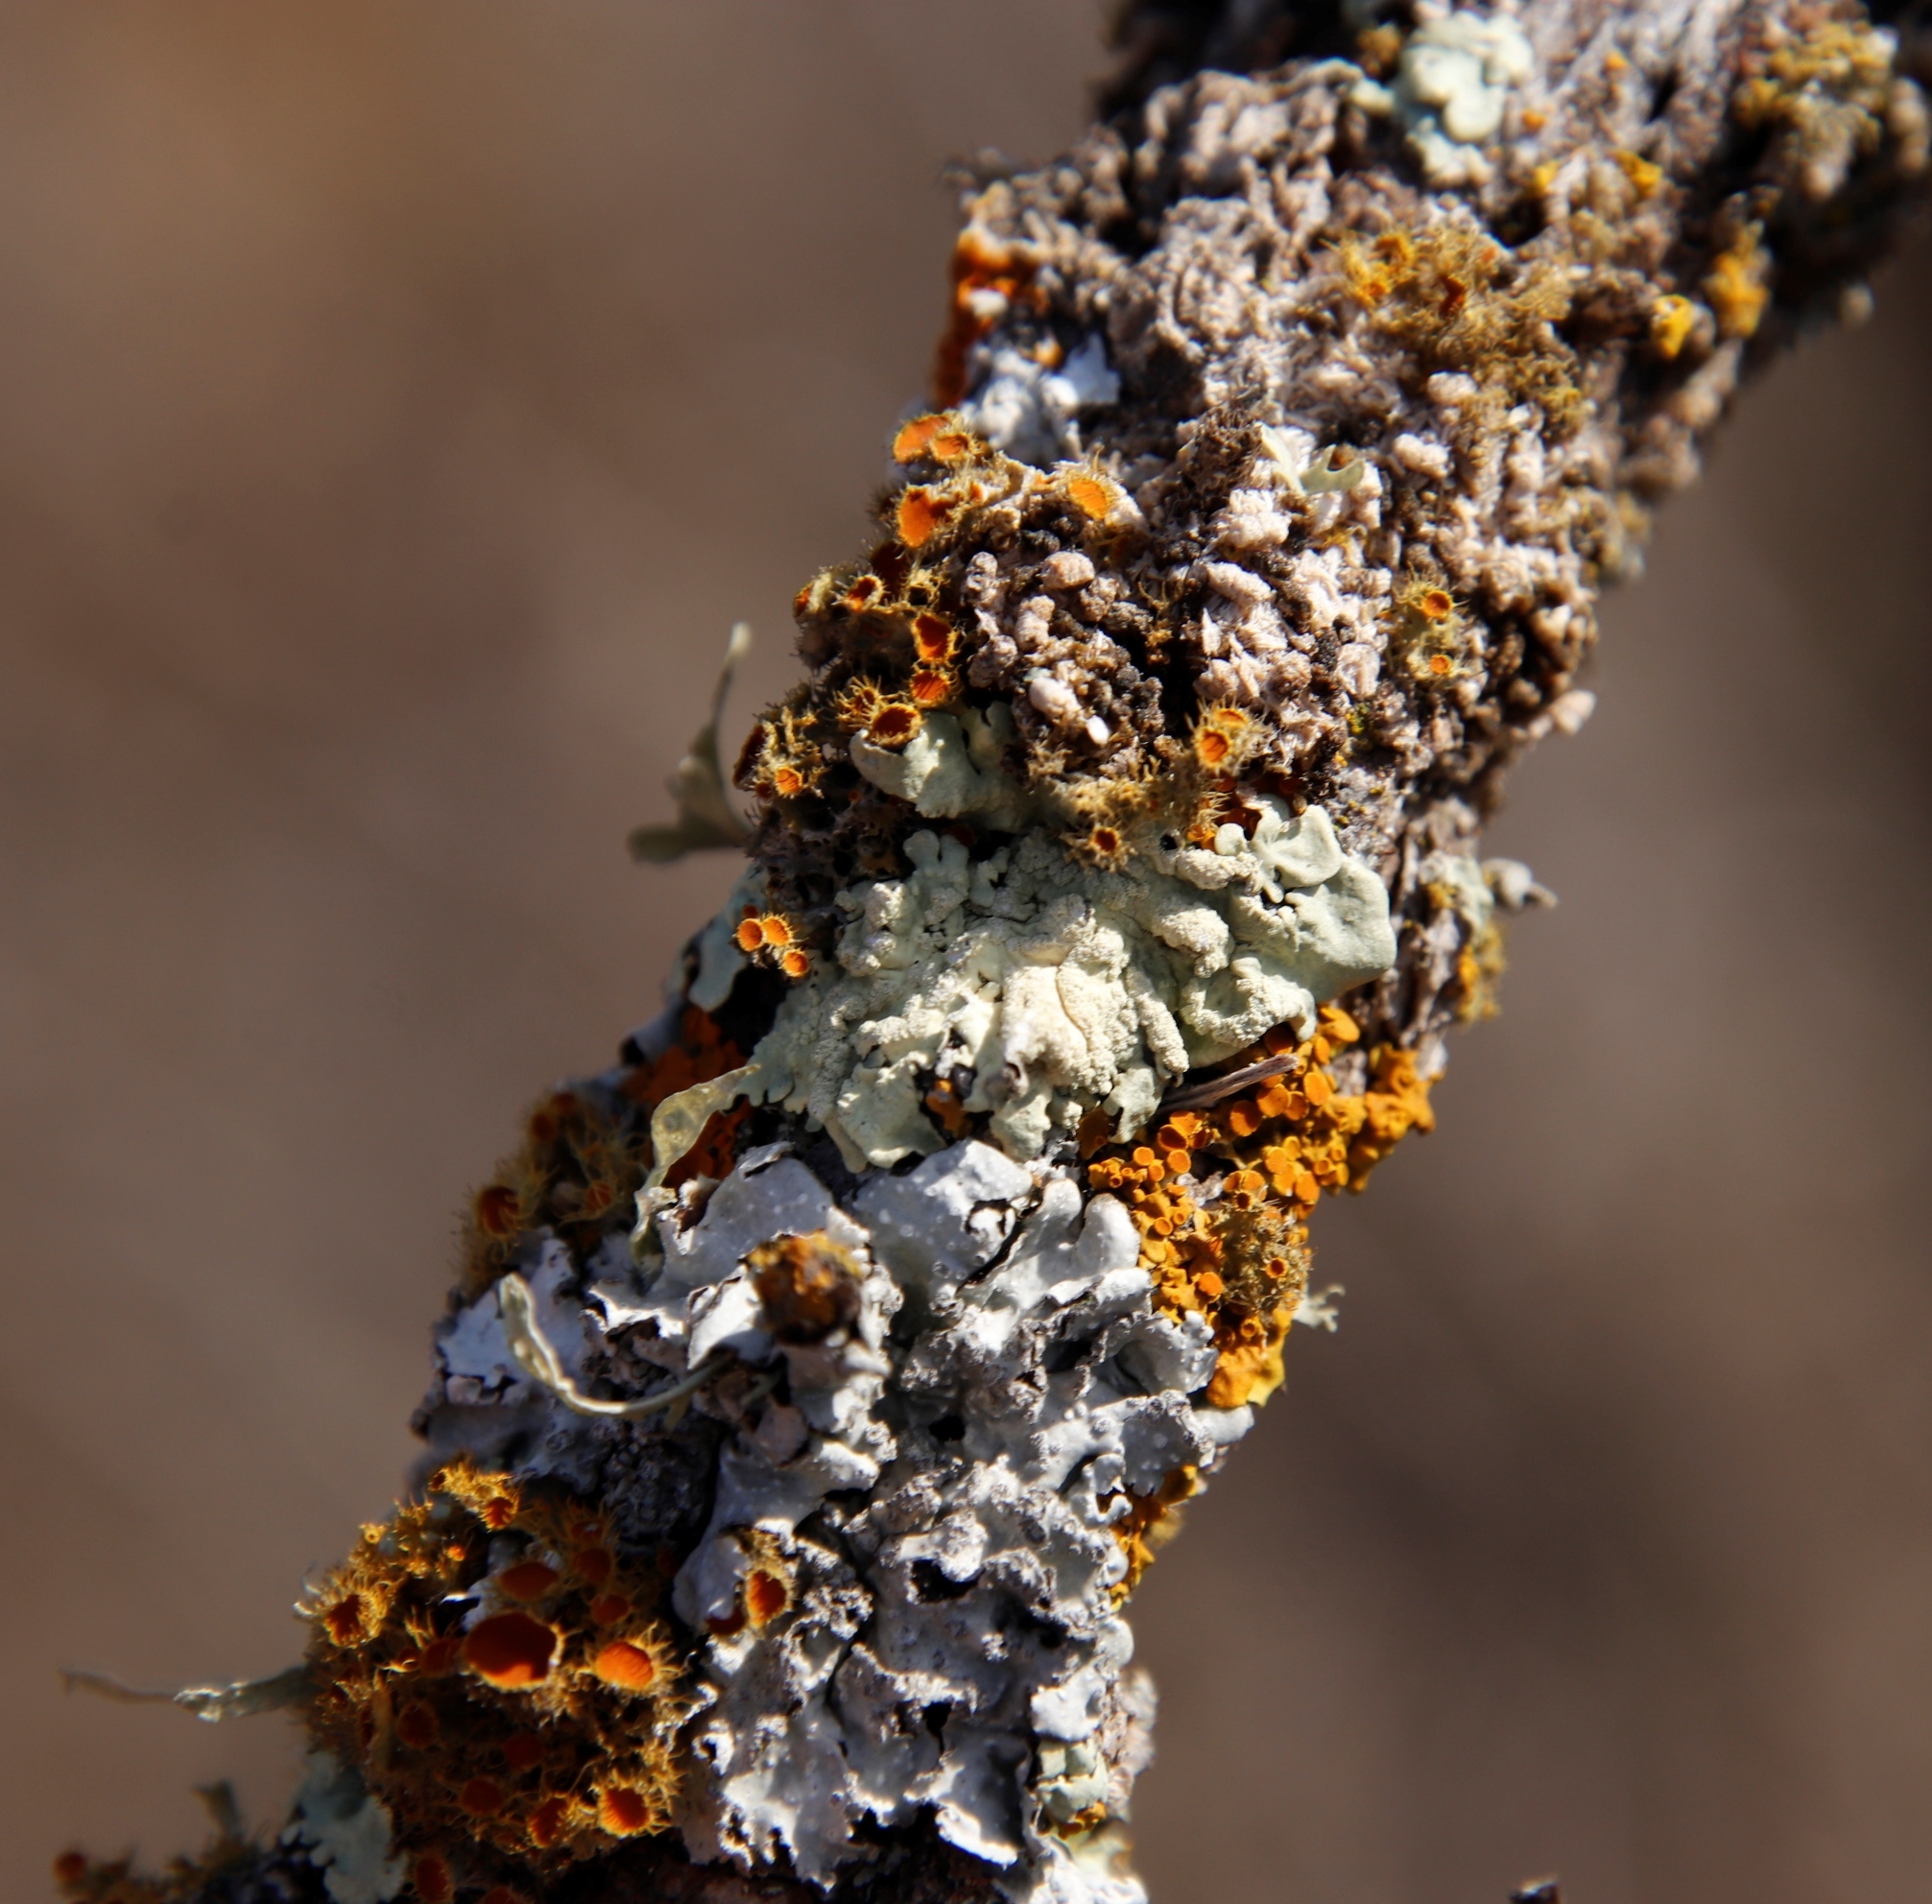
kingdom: Fungi
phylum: Ascomycota
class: Lecanoromycetes
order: Lecanorales
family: Parmeliaceae
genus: Flavoparmelia
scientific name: Flavoparmelia caperata
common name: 40-mile per hour lichen
